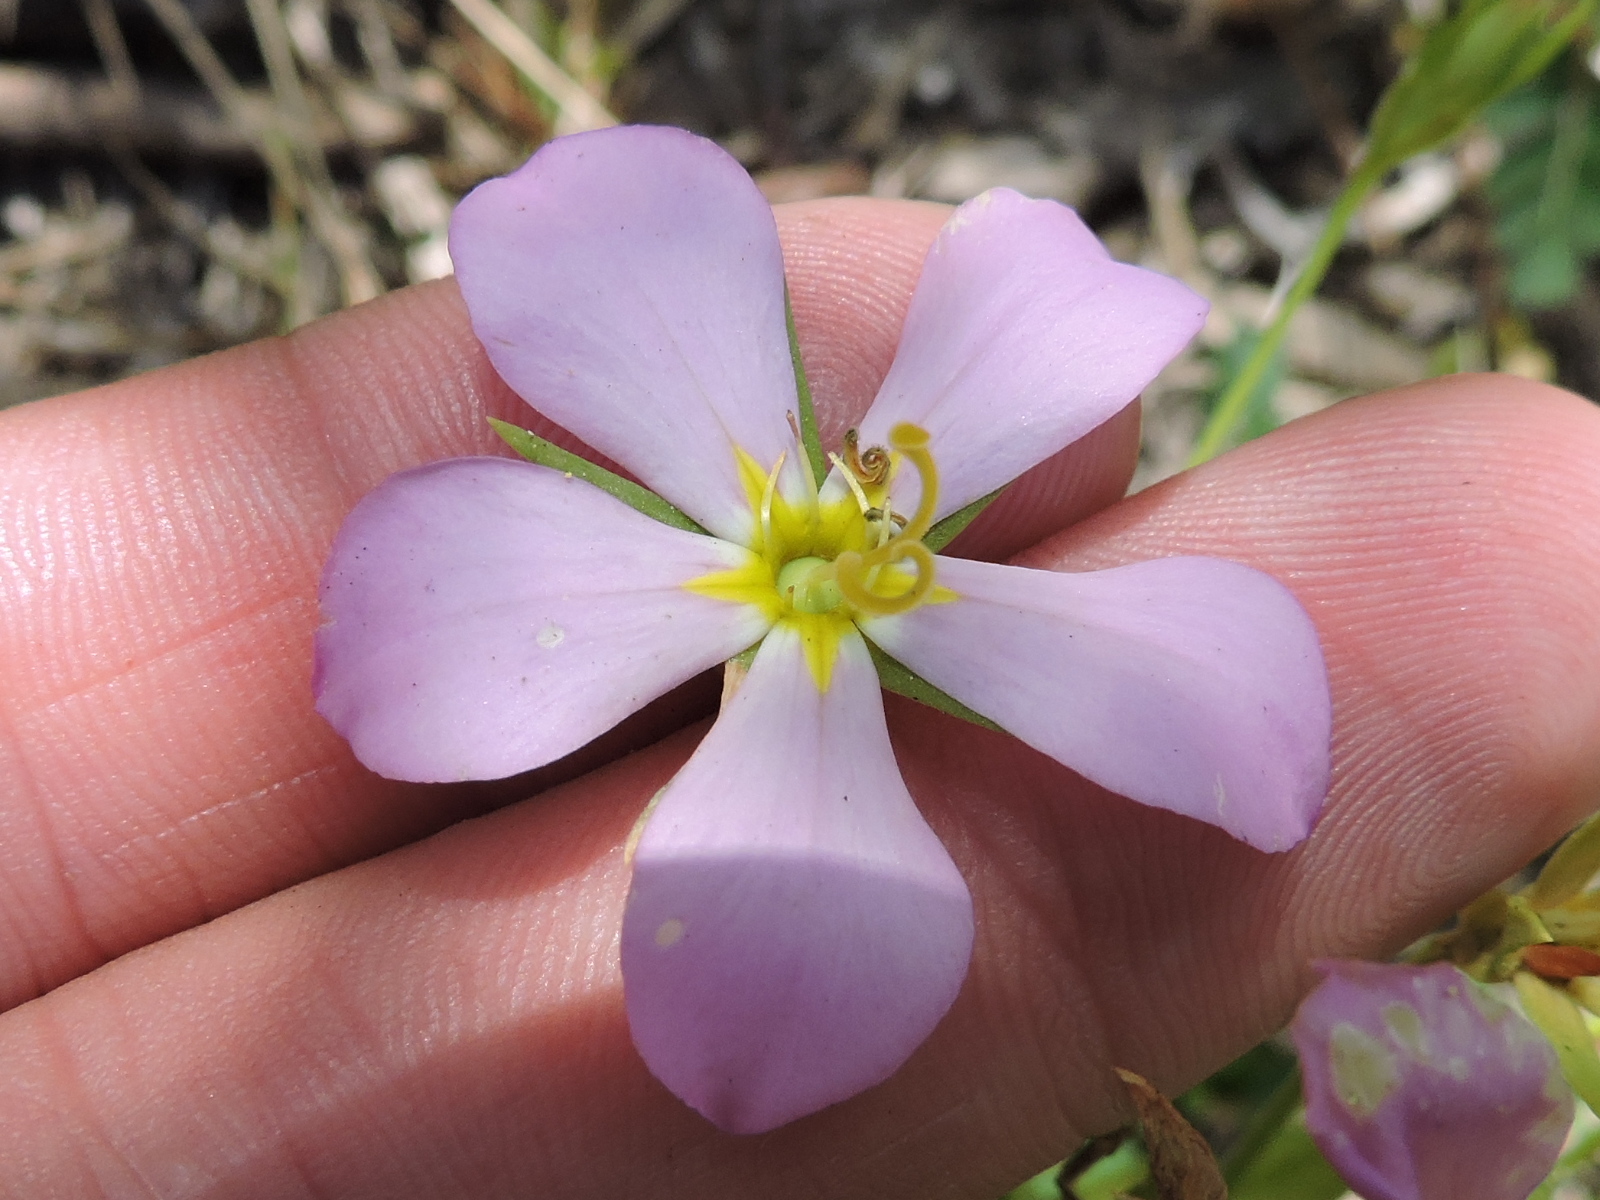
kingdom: Plantae
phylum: Tracheophyta
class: Magnoliopsida
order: Gentianales
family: Gentianaceae
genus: Sabatia
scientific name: Sabatia campestris
